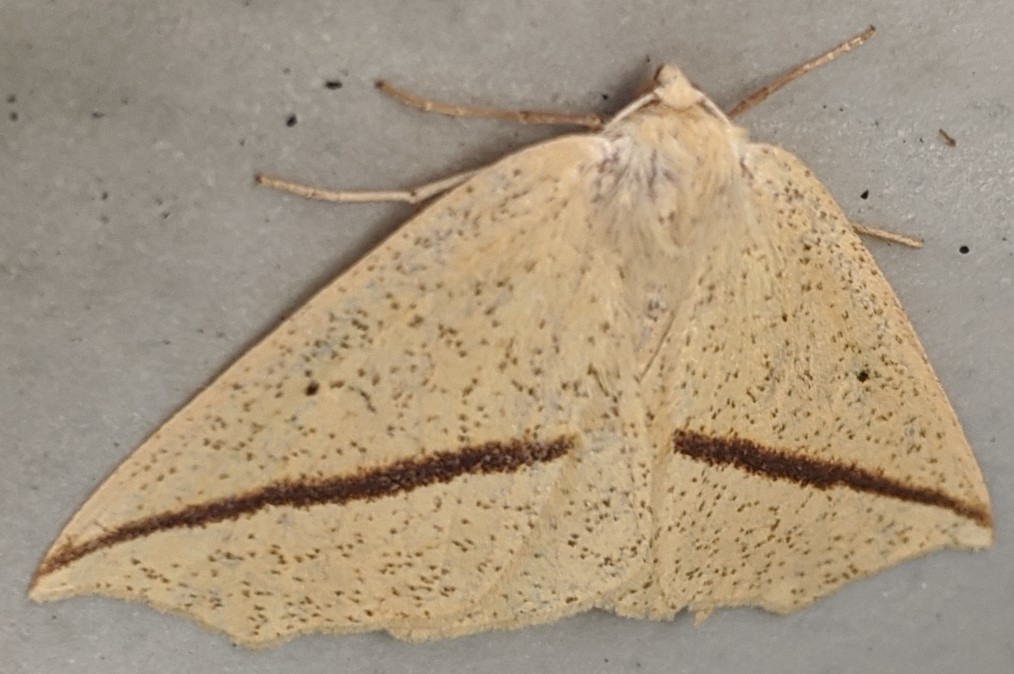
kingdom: Animalia
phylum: Arthropoda
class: Insecta
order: Lepidoptera
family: Geometridae
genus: Tetracis
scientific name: Tetracis crocallata
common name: Yellow slant-line
